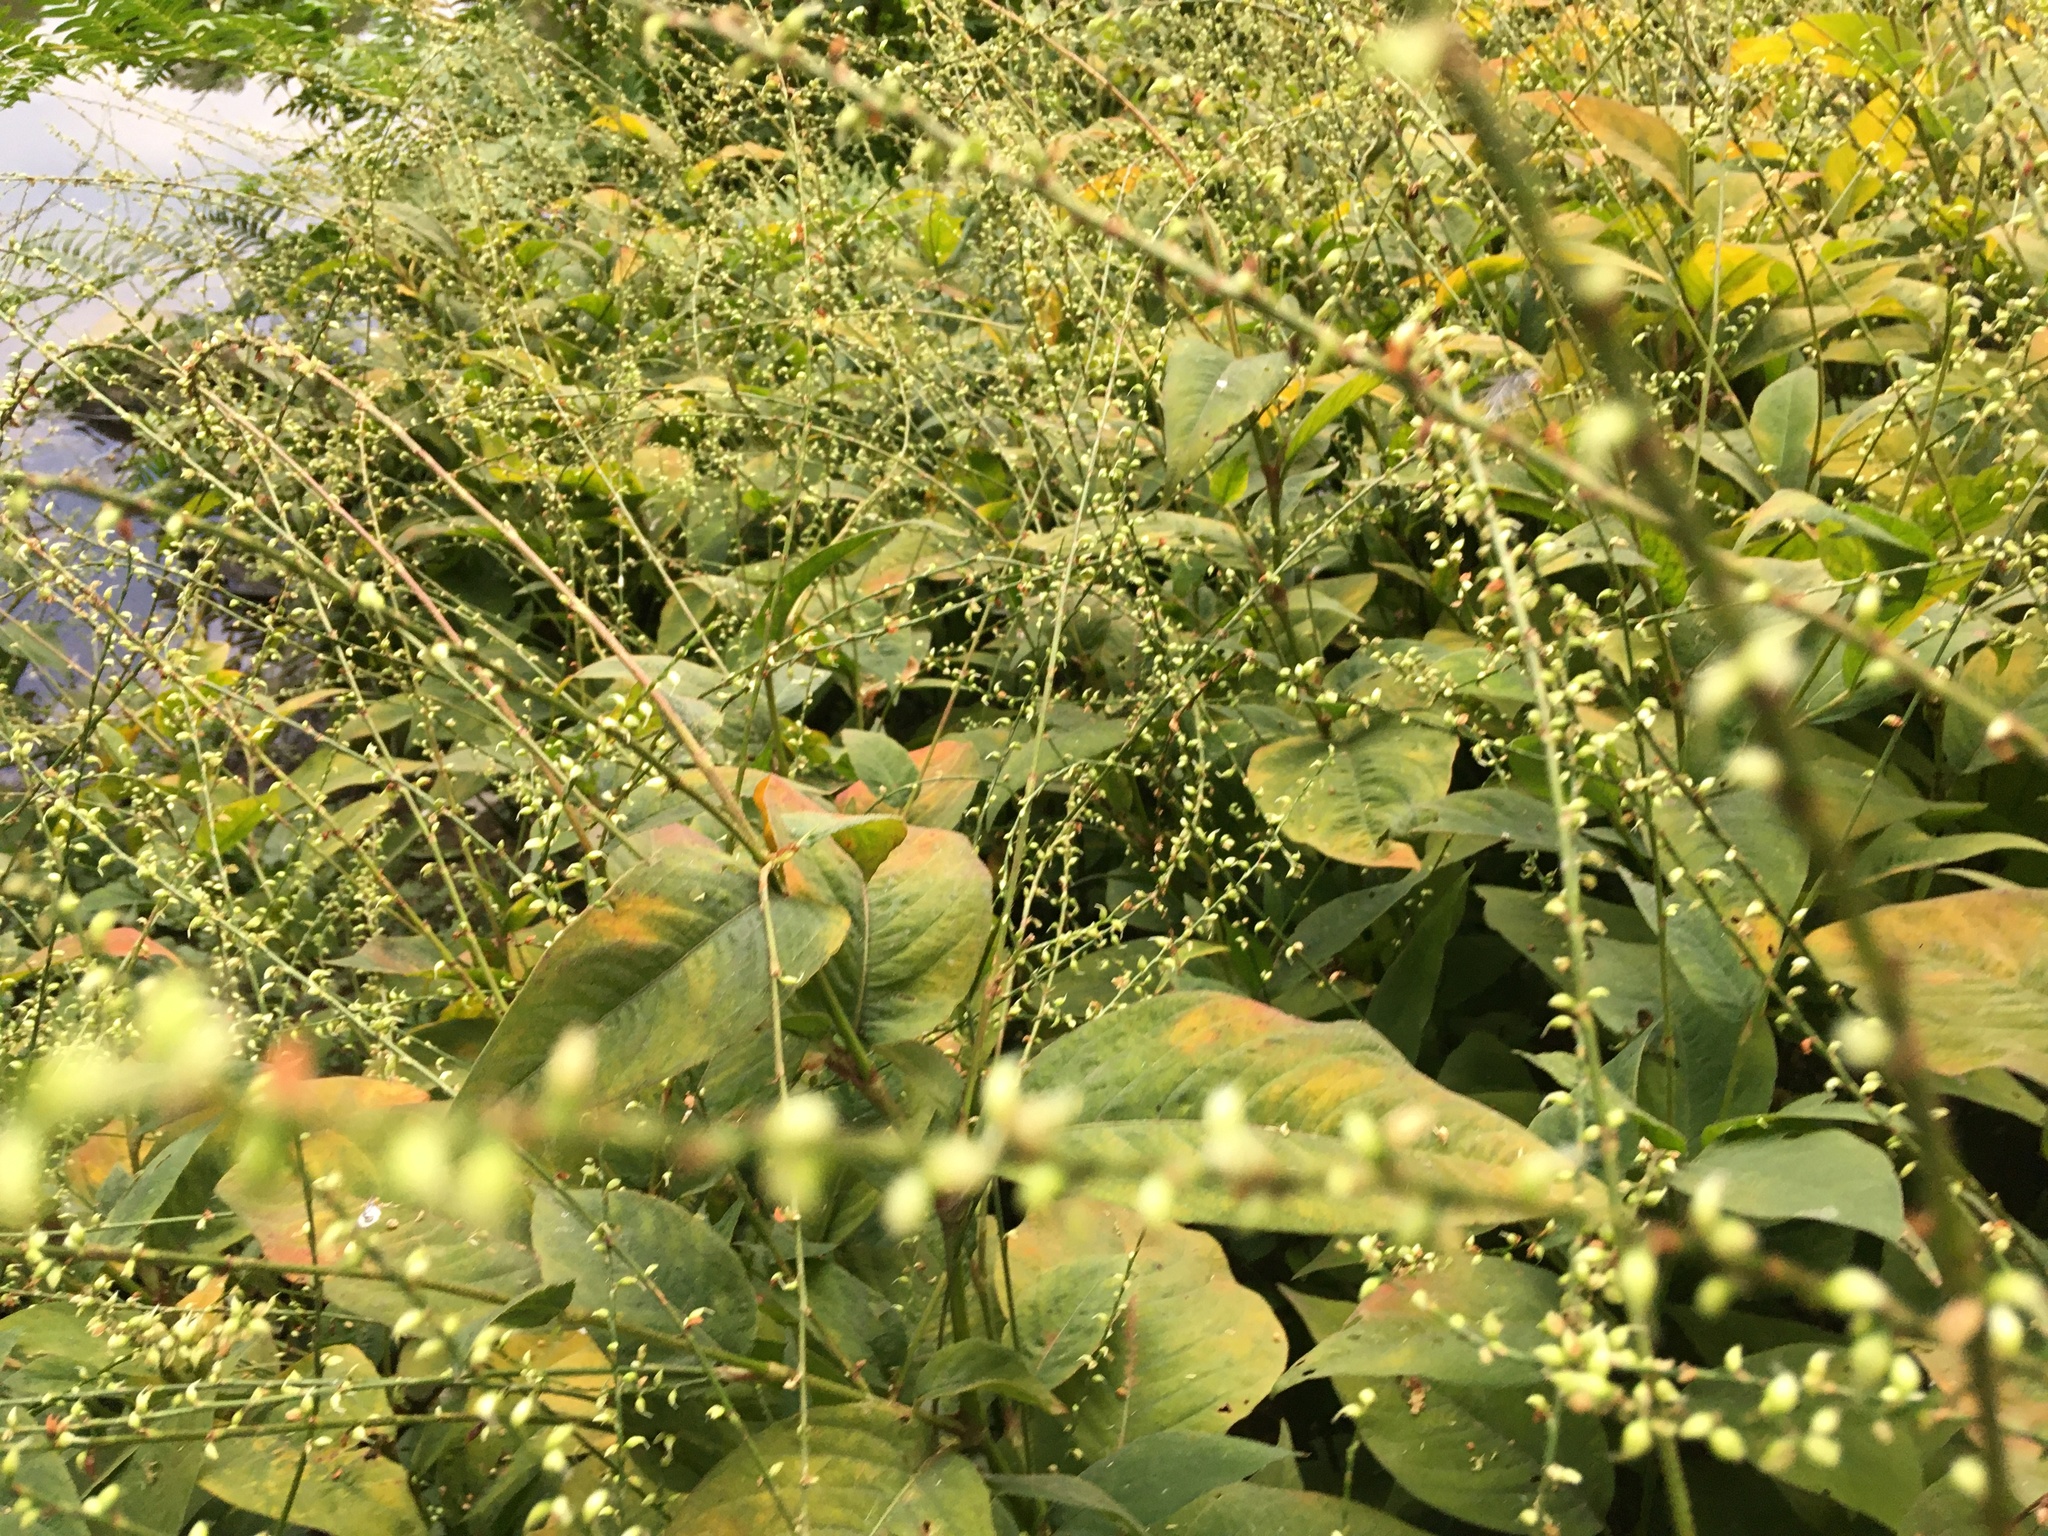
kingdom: Plantae
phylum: Tracheophyta
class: Magnoliopsida
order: Caryophyllales
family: Polygonaceae
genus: Persicaria
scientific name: Persicaria virginiana
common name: Jumpseed
